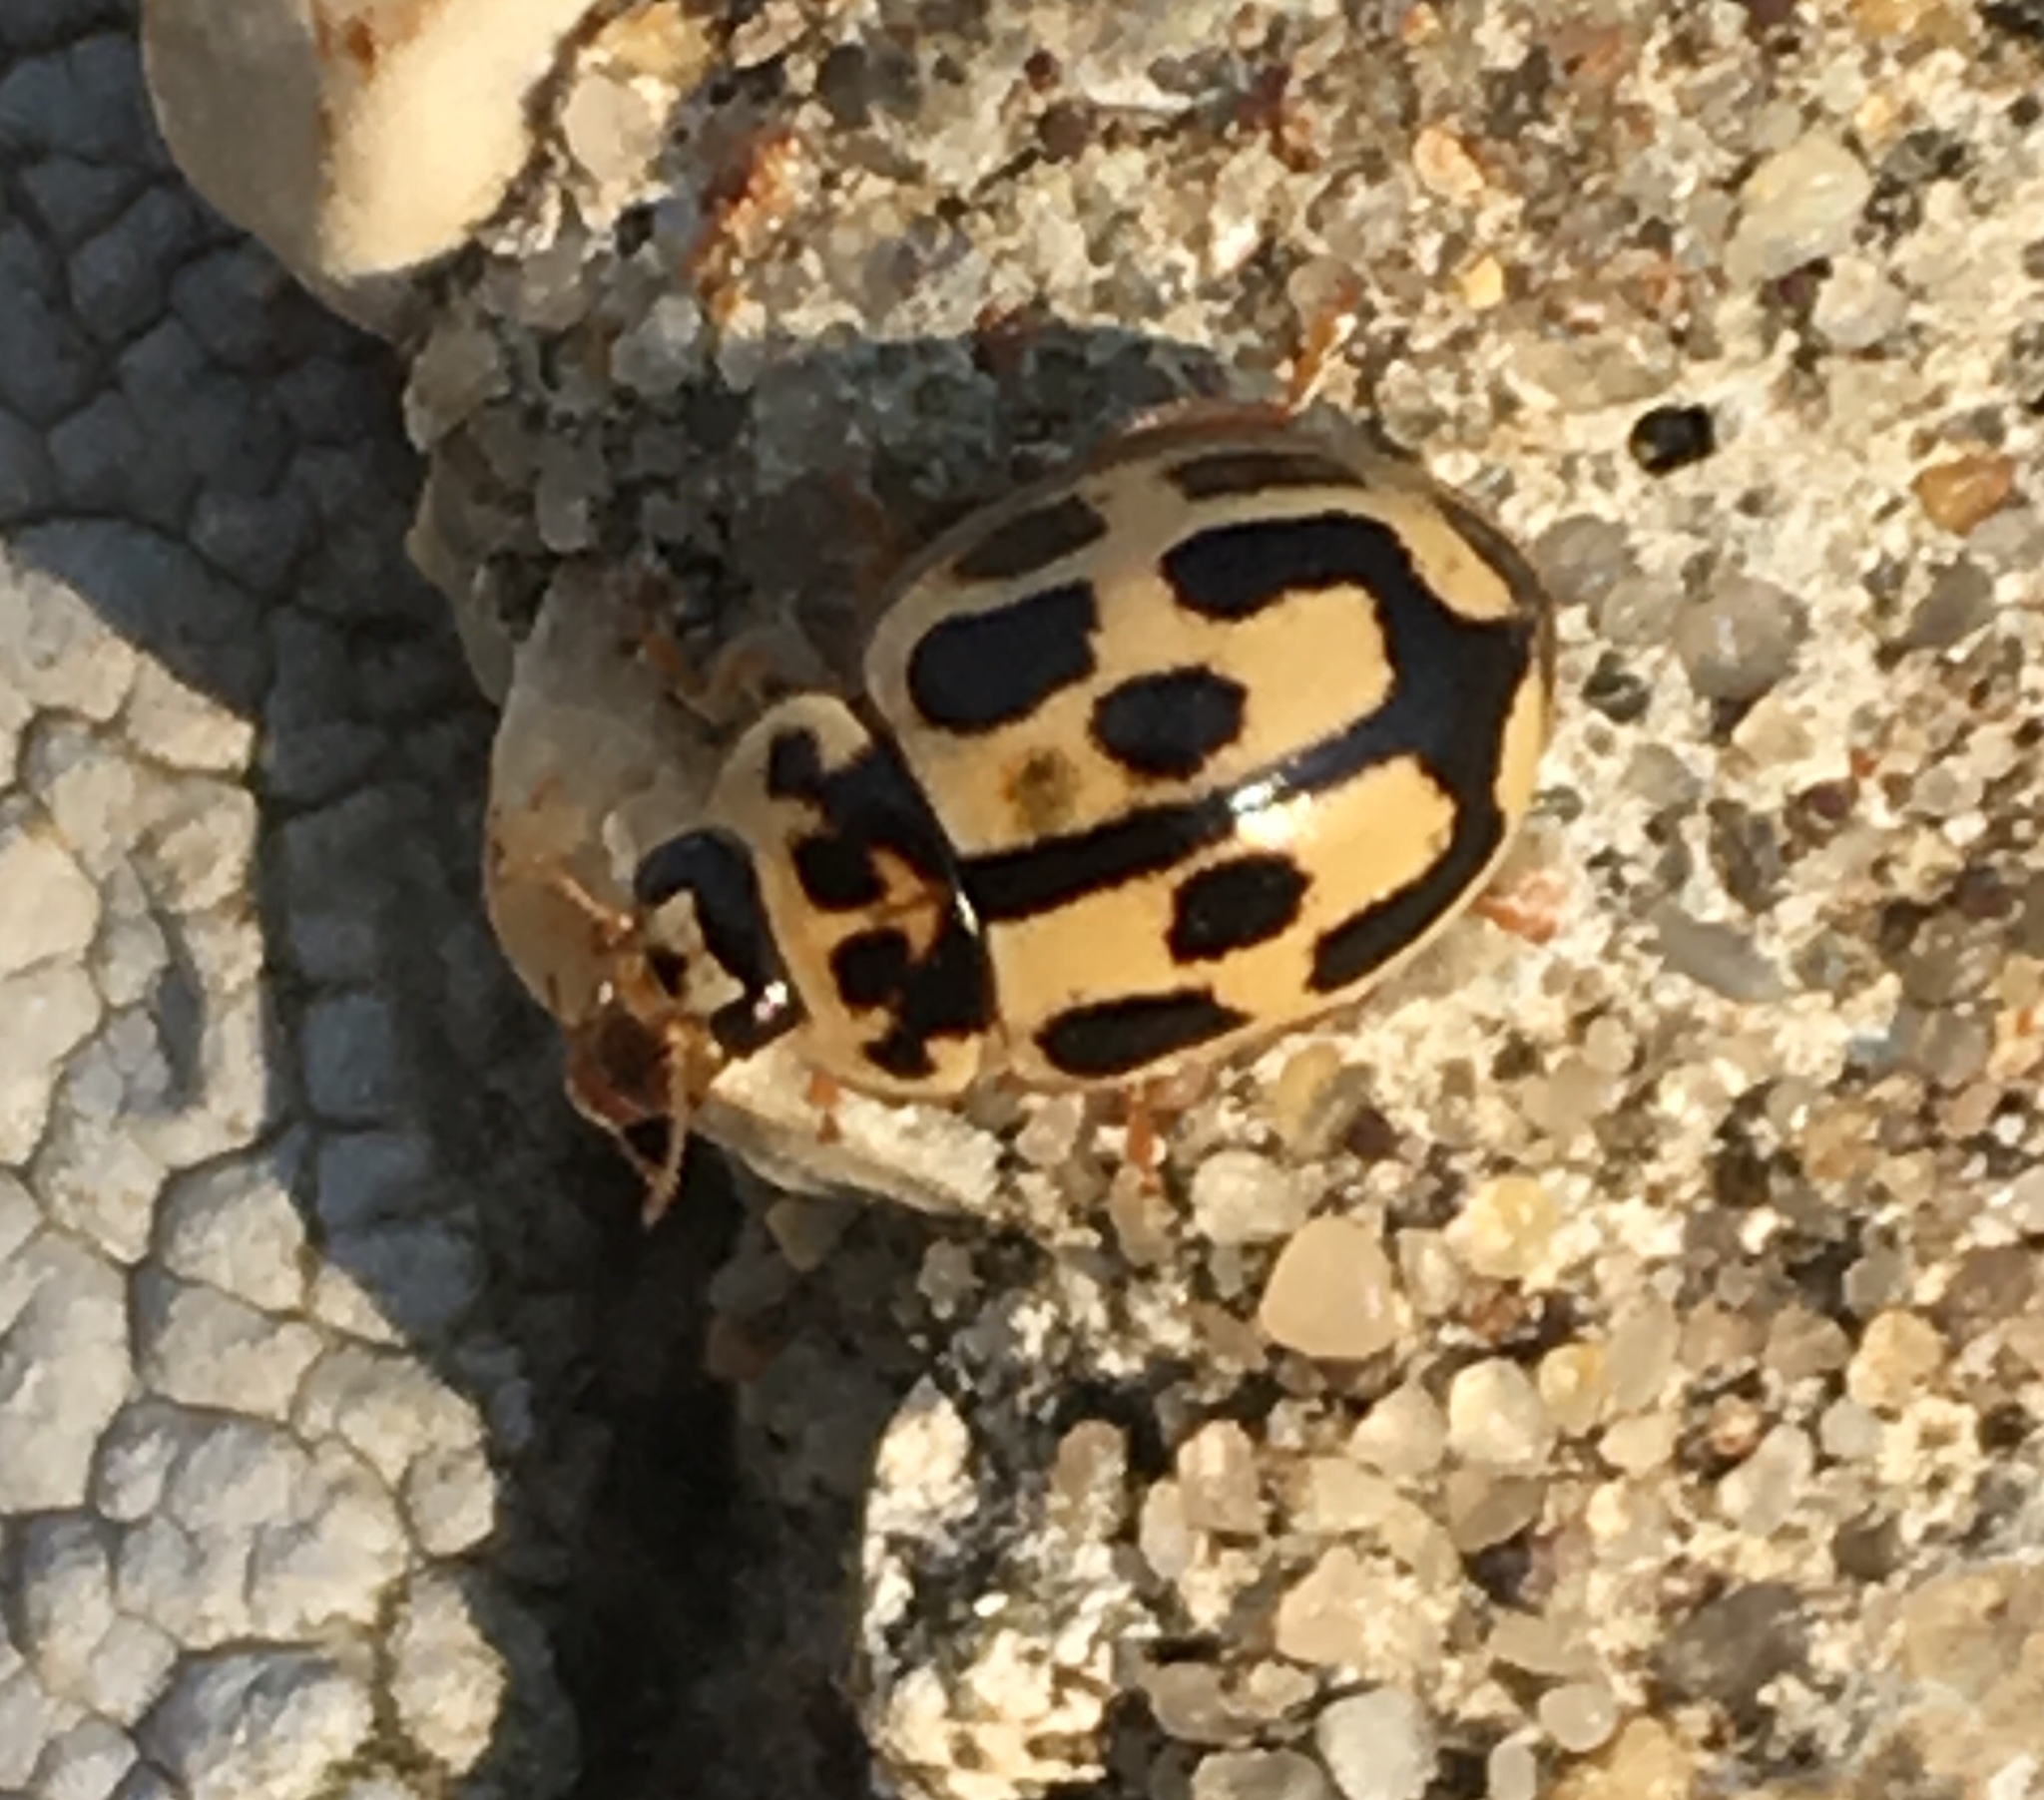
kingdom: Animalia
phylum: Arthropoda
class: Insecta
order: Coleoptera
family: Coccinellidae
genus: Propylaea
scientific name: Propylaea quatuordecimpunctata
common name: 14-spotted ladybird beetle
